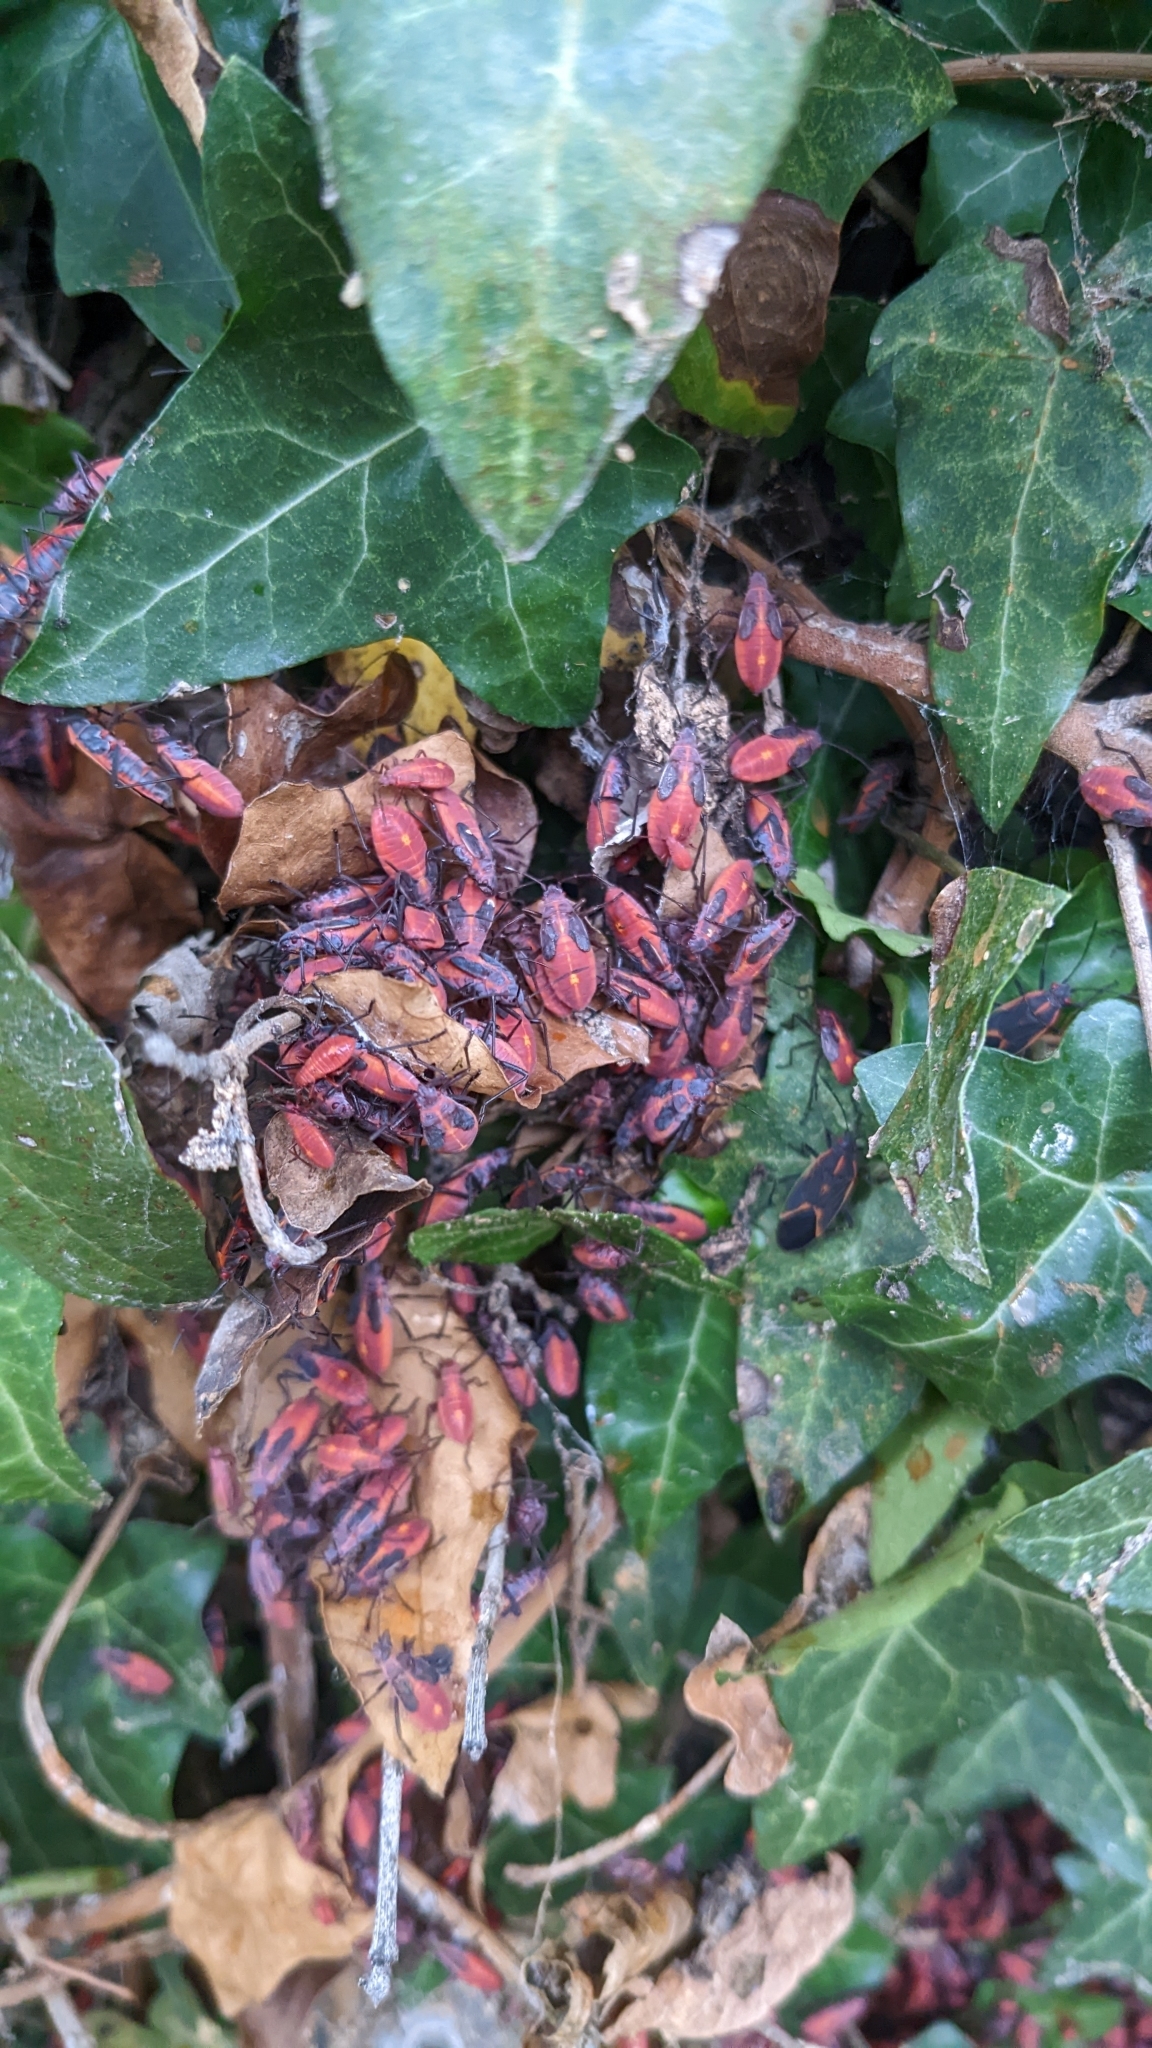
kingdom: Animalia
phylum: Arthropoda
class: Insecta
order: Hemiptera
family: Rhopalidae
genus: Boisea
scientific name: Boisea trivittata
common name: Boxelder bug
